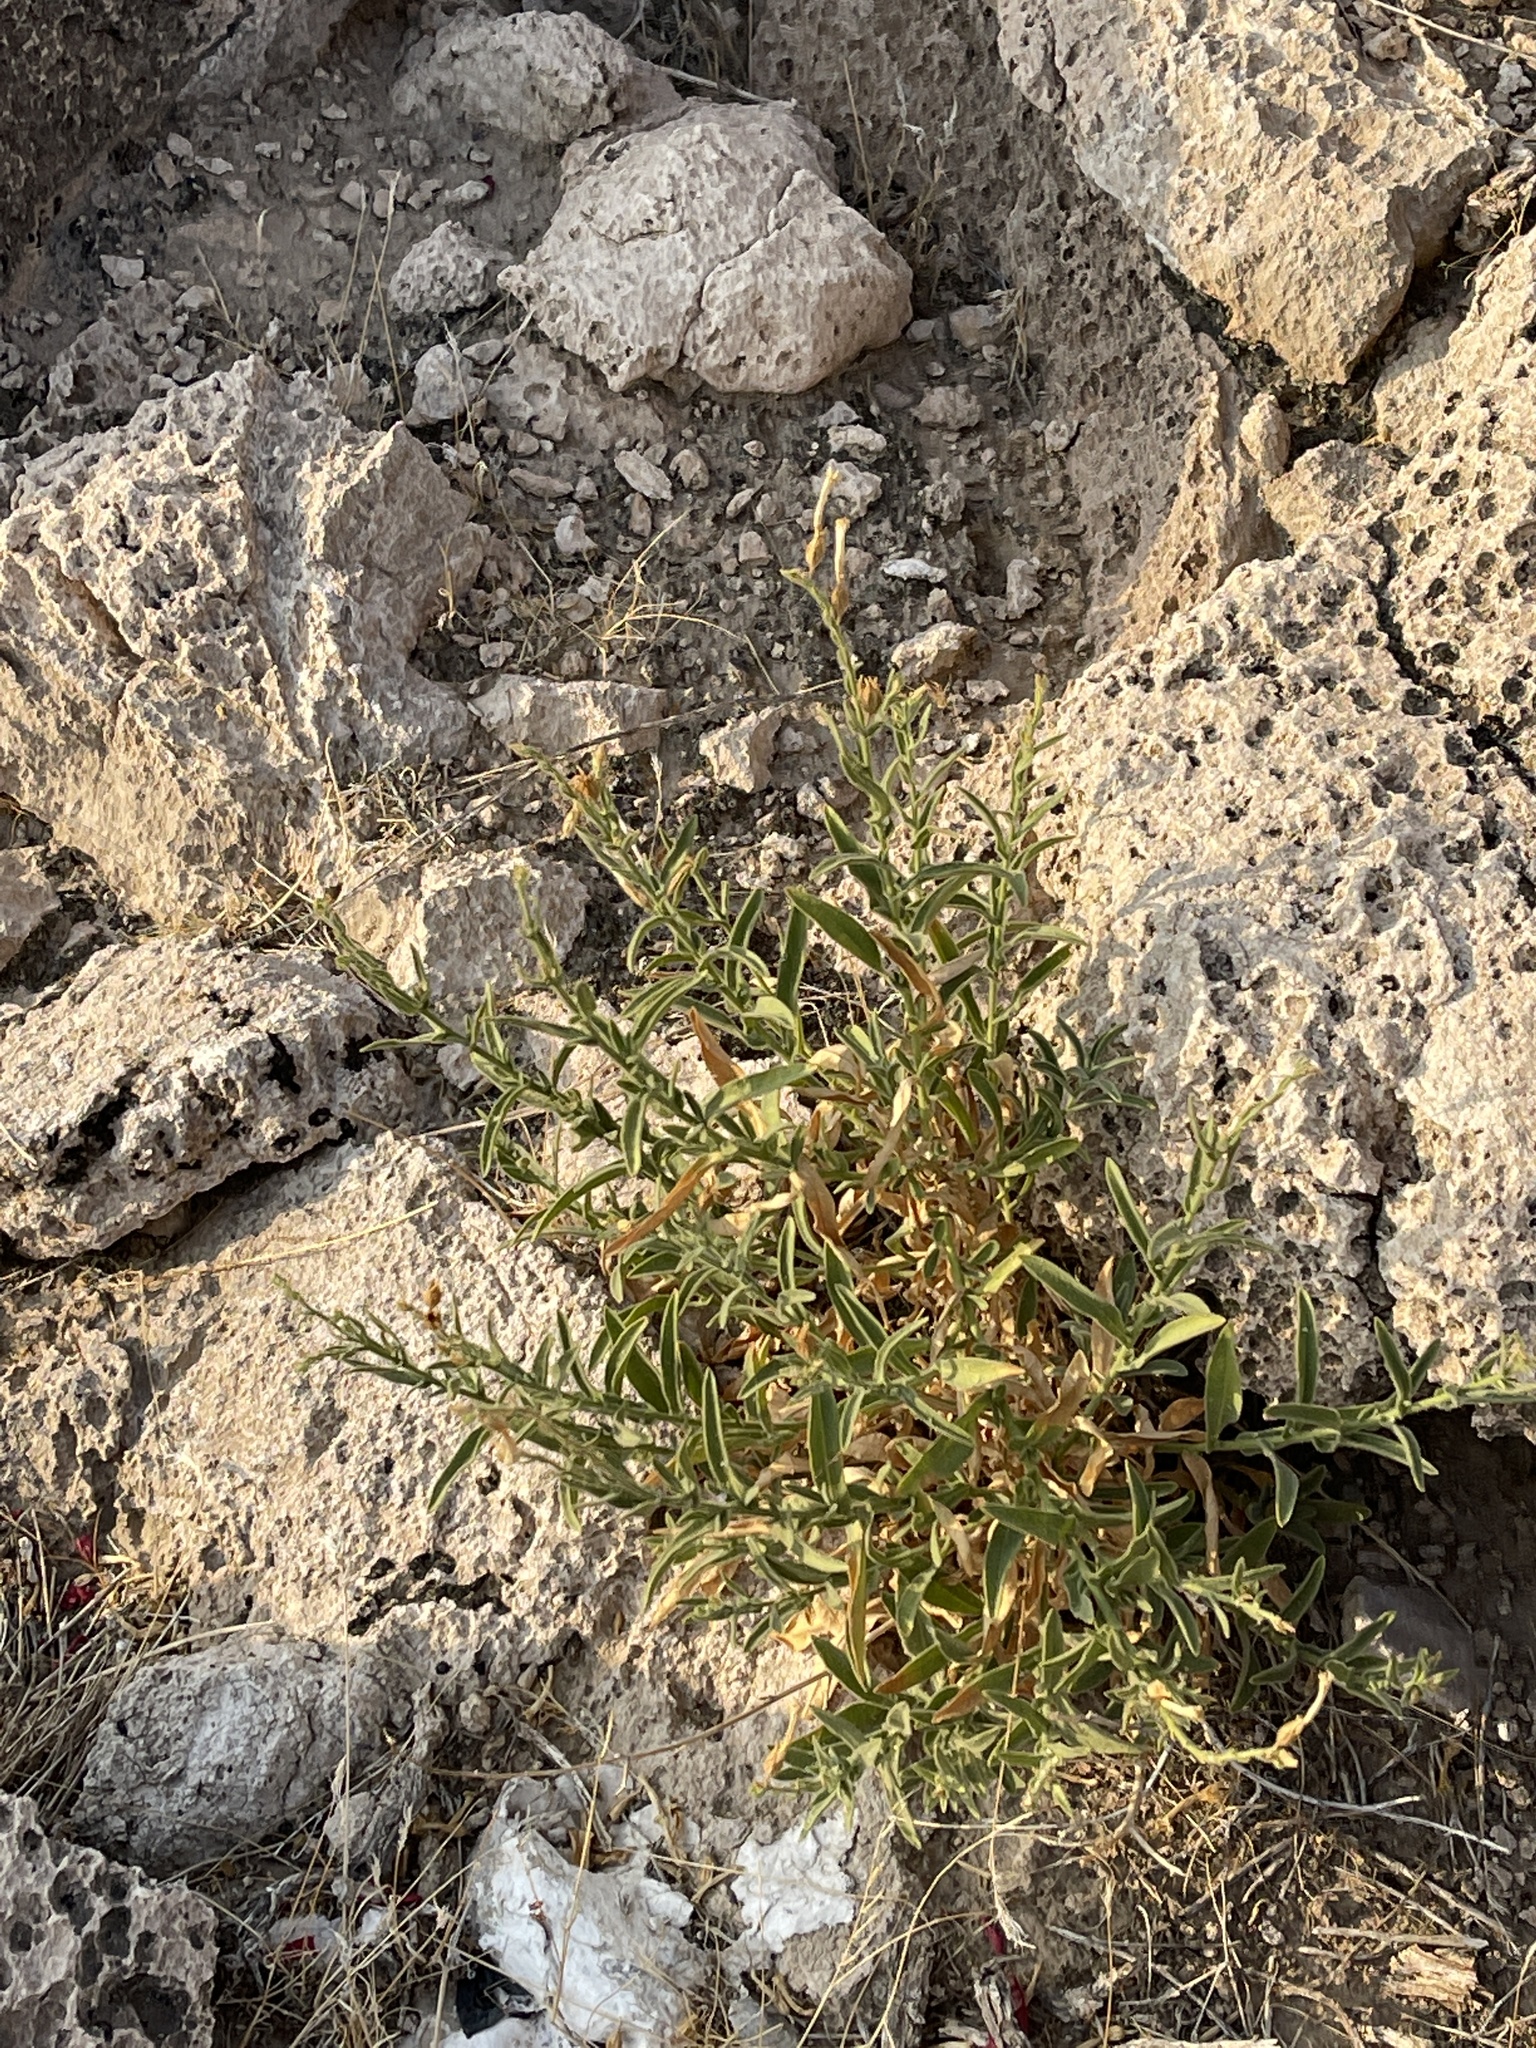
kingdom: Plantae
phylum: Tracheophyta
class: Magnoliopsida
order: Solanales
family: Solanaceae
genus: Nicotiana
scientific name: Nicotiana obtusifolia
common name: Desert tobacco
